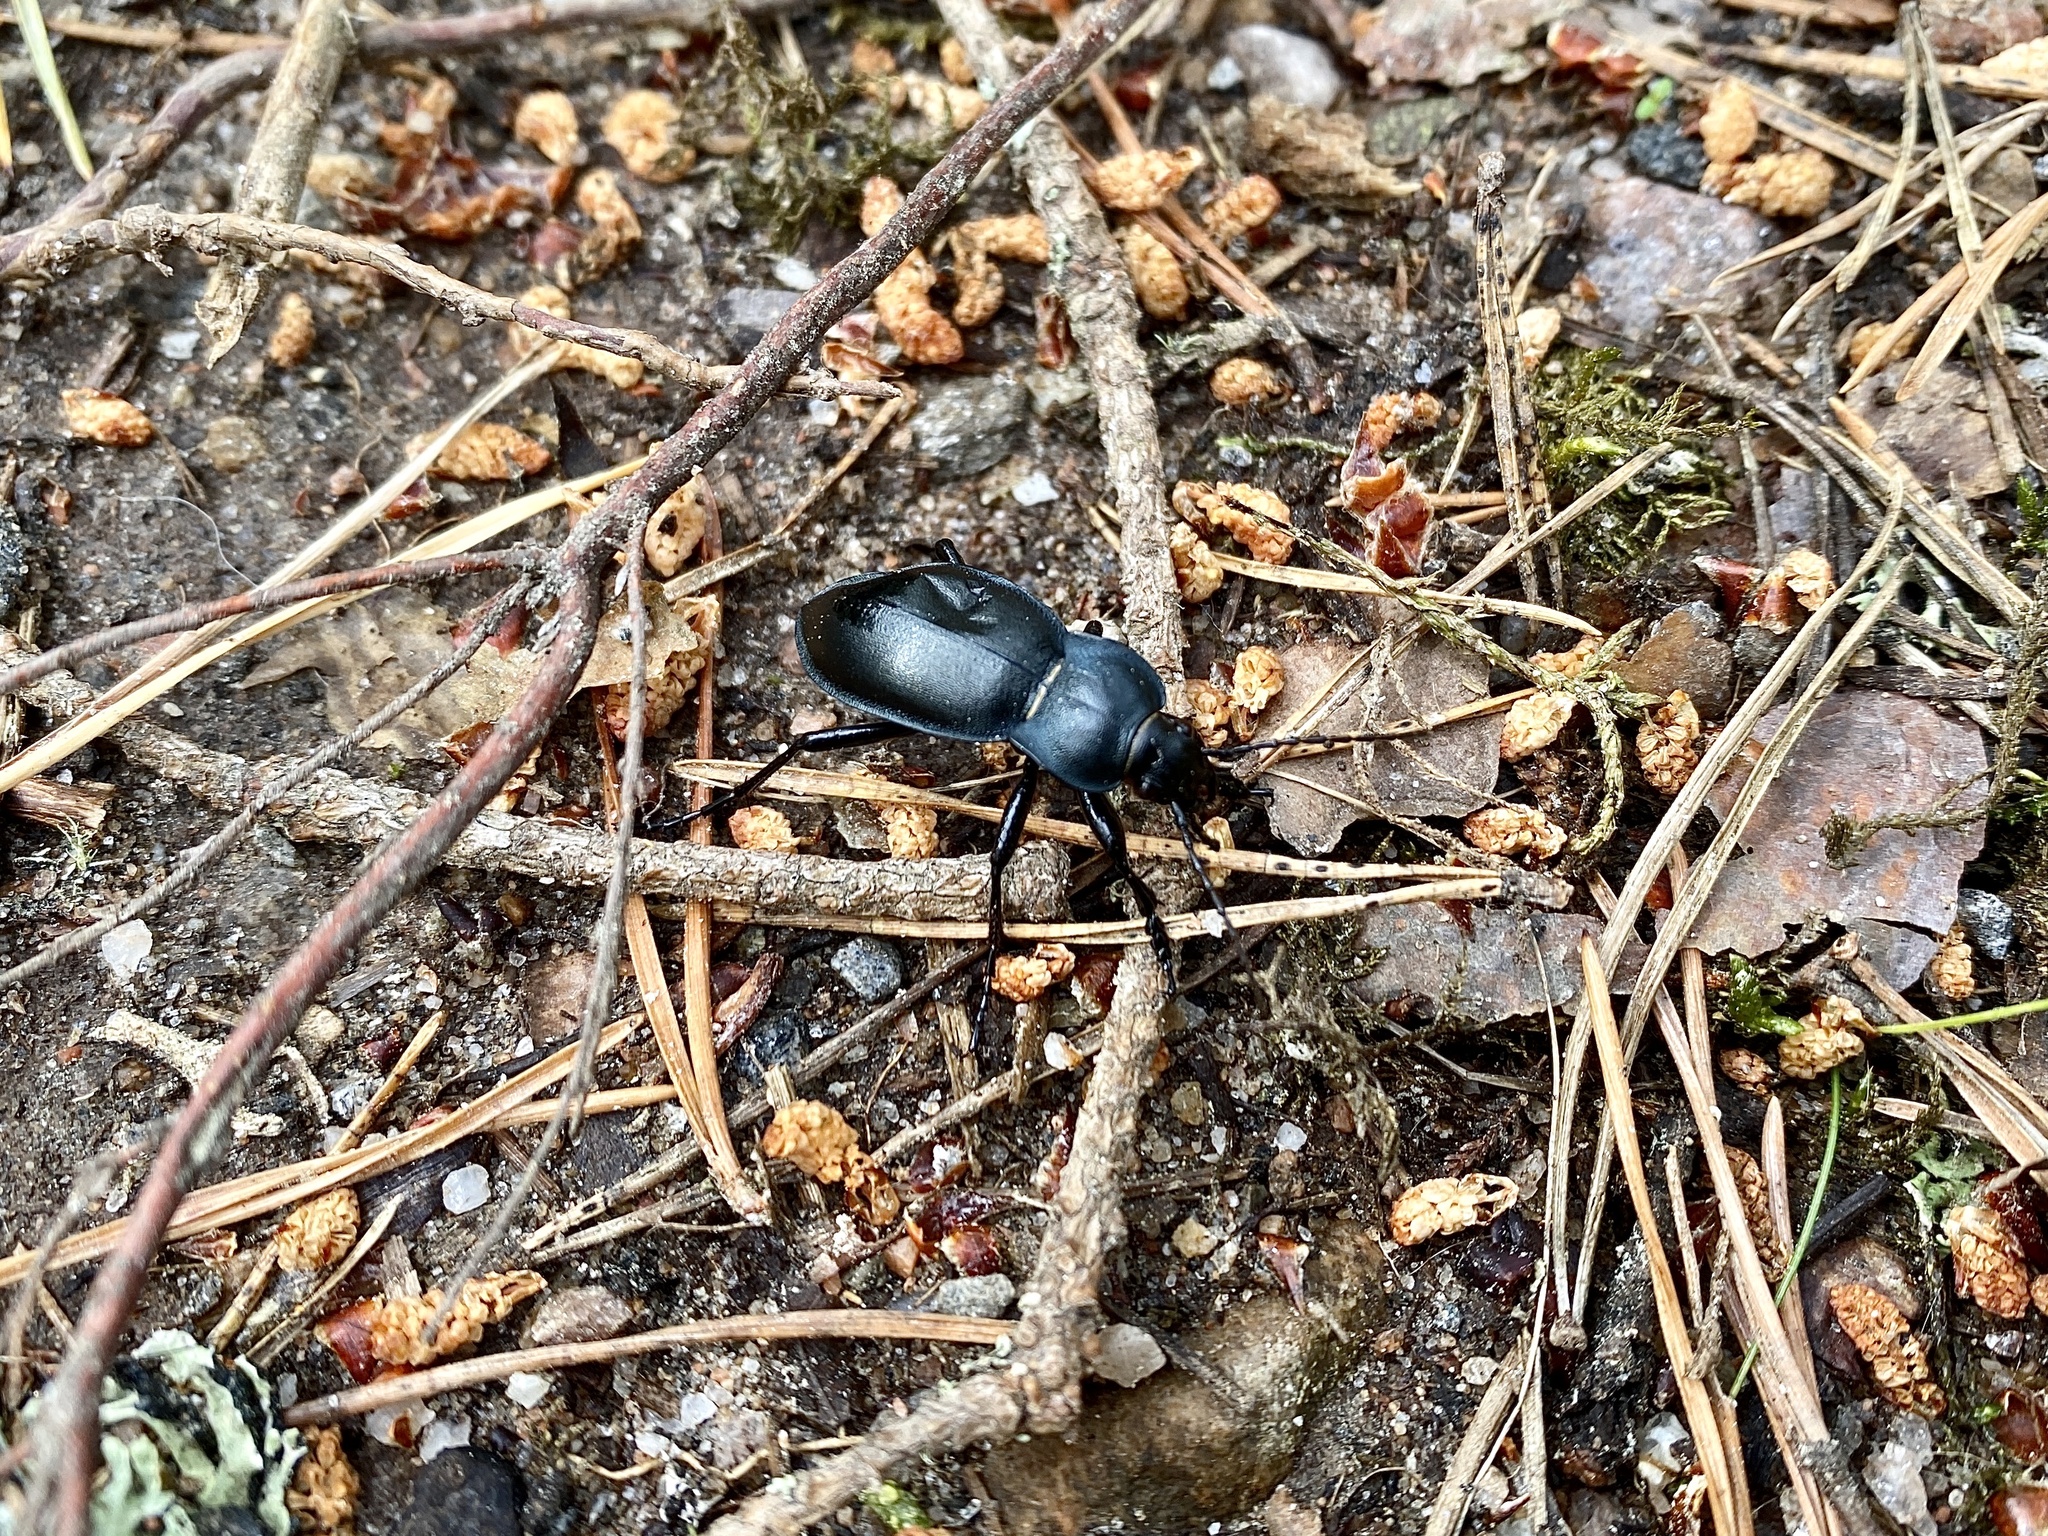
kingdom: Animalia
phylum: Arthropoda
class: Insecta
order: Coleoptera
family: Carabidae
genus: Carabus
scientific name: Carabus glabratus
